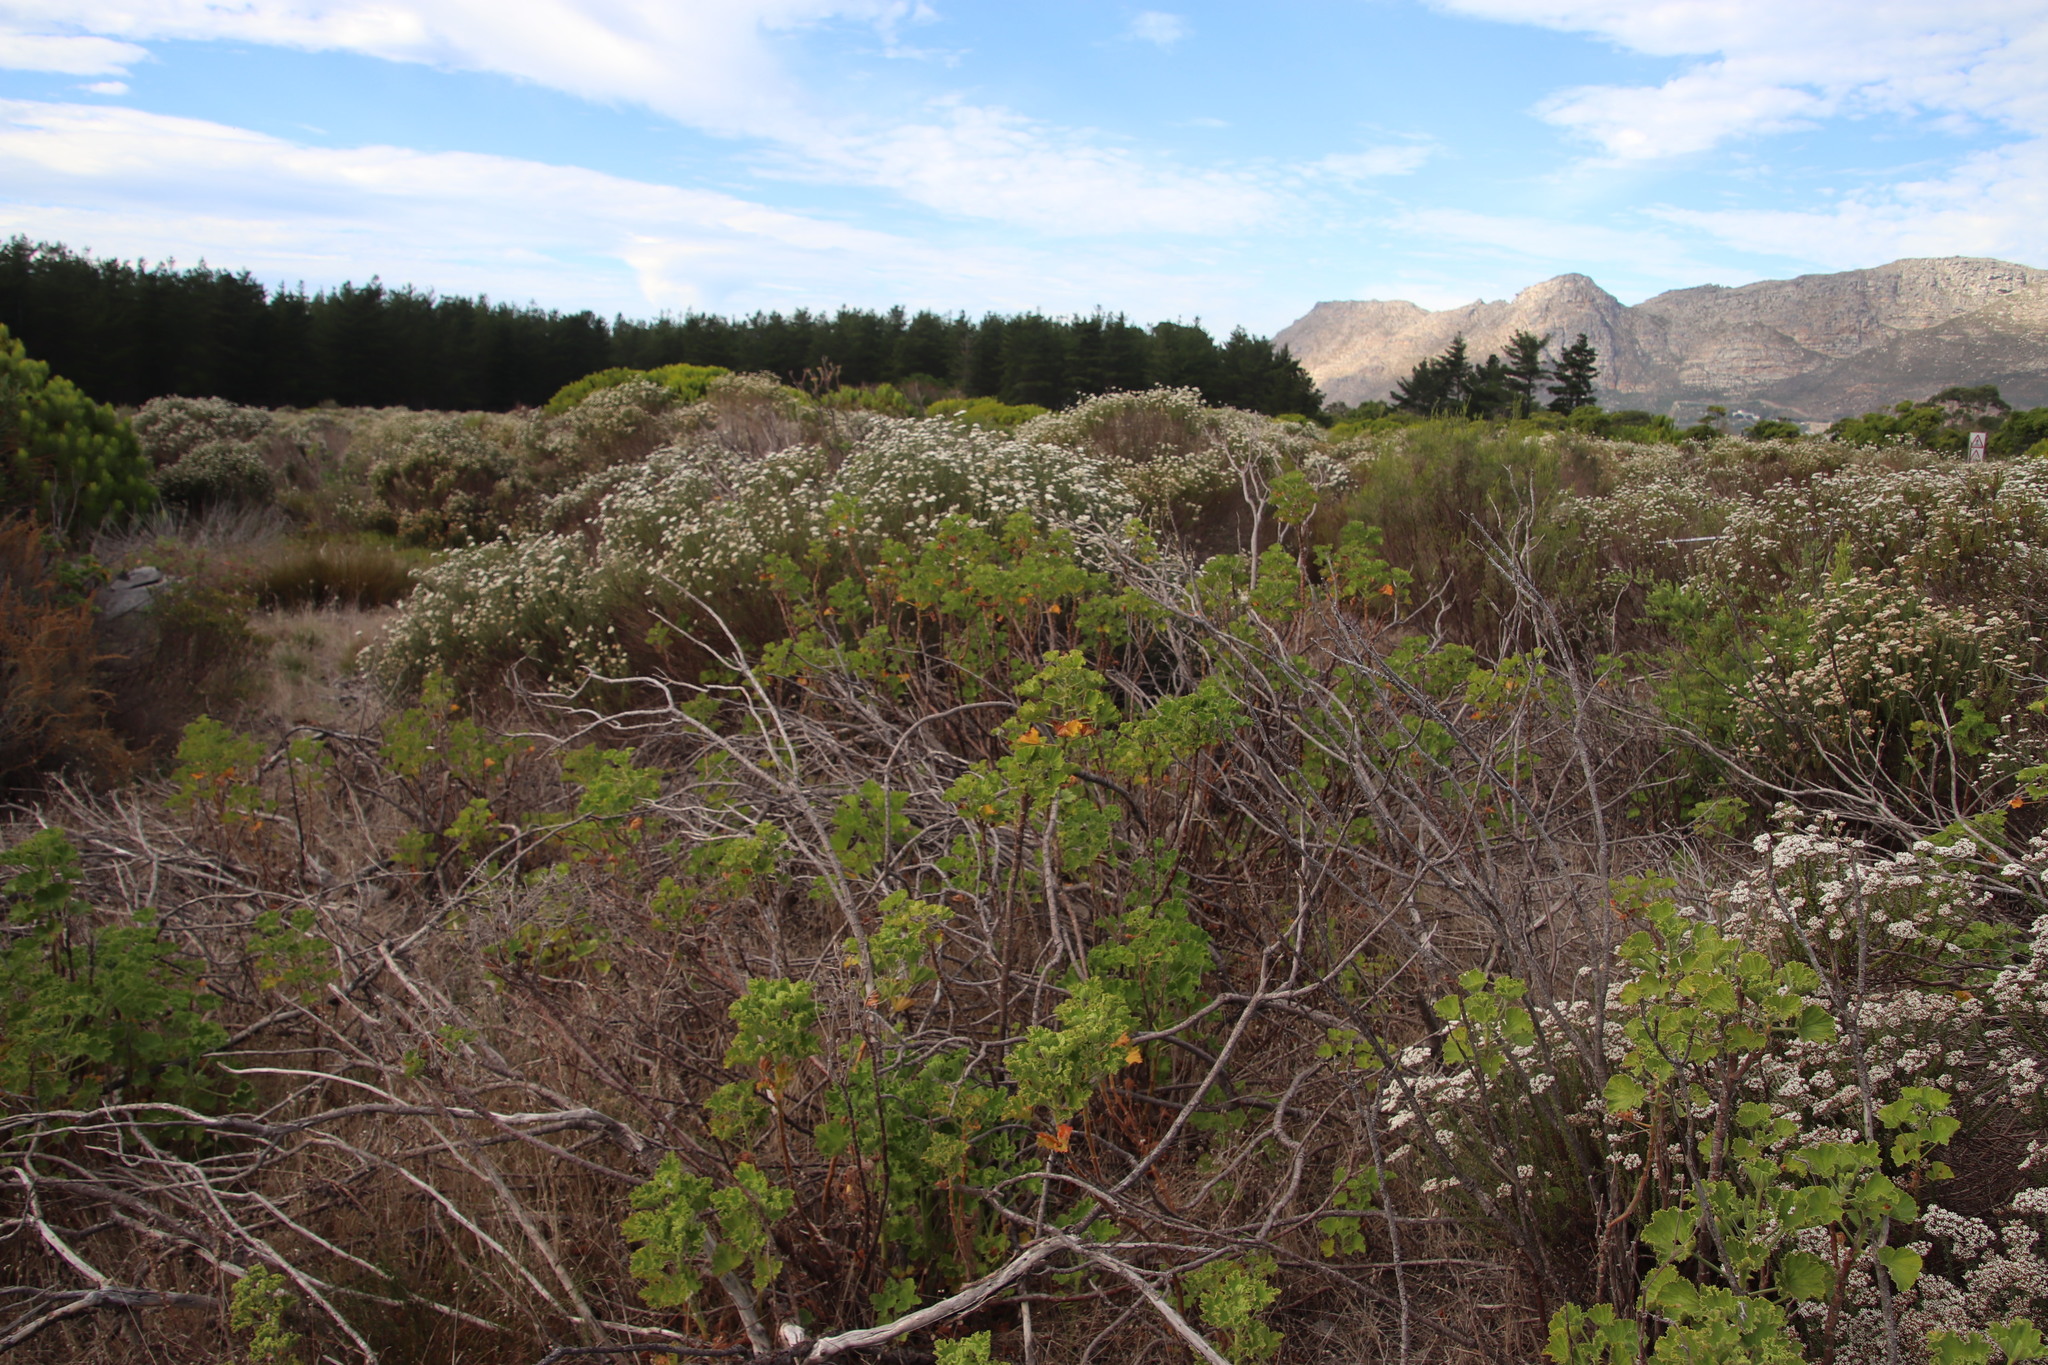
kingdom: Plantae
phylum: Tracheophyta
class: Magnoliopsida
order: Geraniales
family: Geraniaceae
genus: Pelargonium
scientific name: Pelargonium cucullatum
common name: Tree pelargonium
